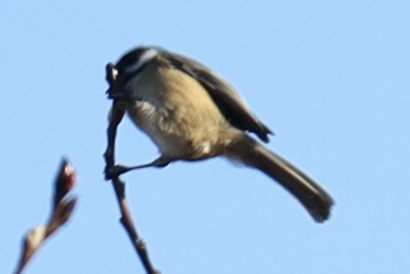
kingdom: Animalia
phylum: Chordata
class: Aves
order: Passeriformes
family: Paridae
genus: Poecile
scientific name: Poecile atricapillus
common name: Black-capped chickadee
